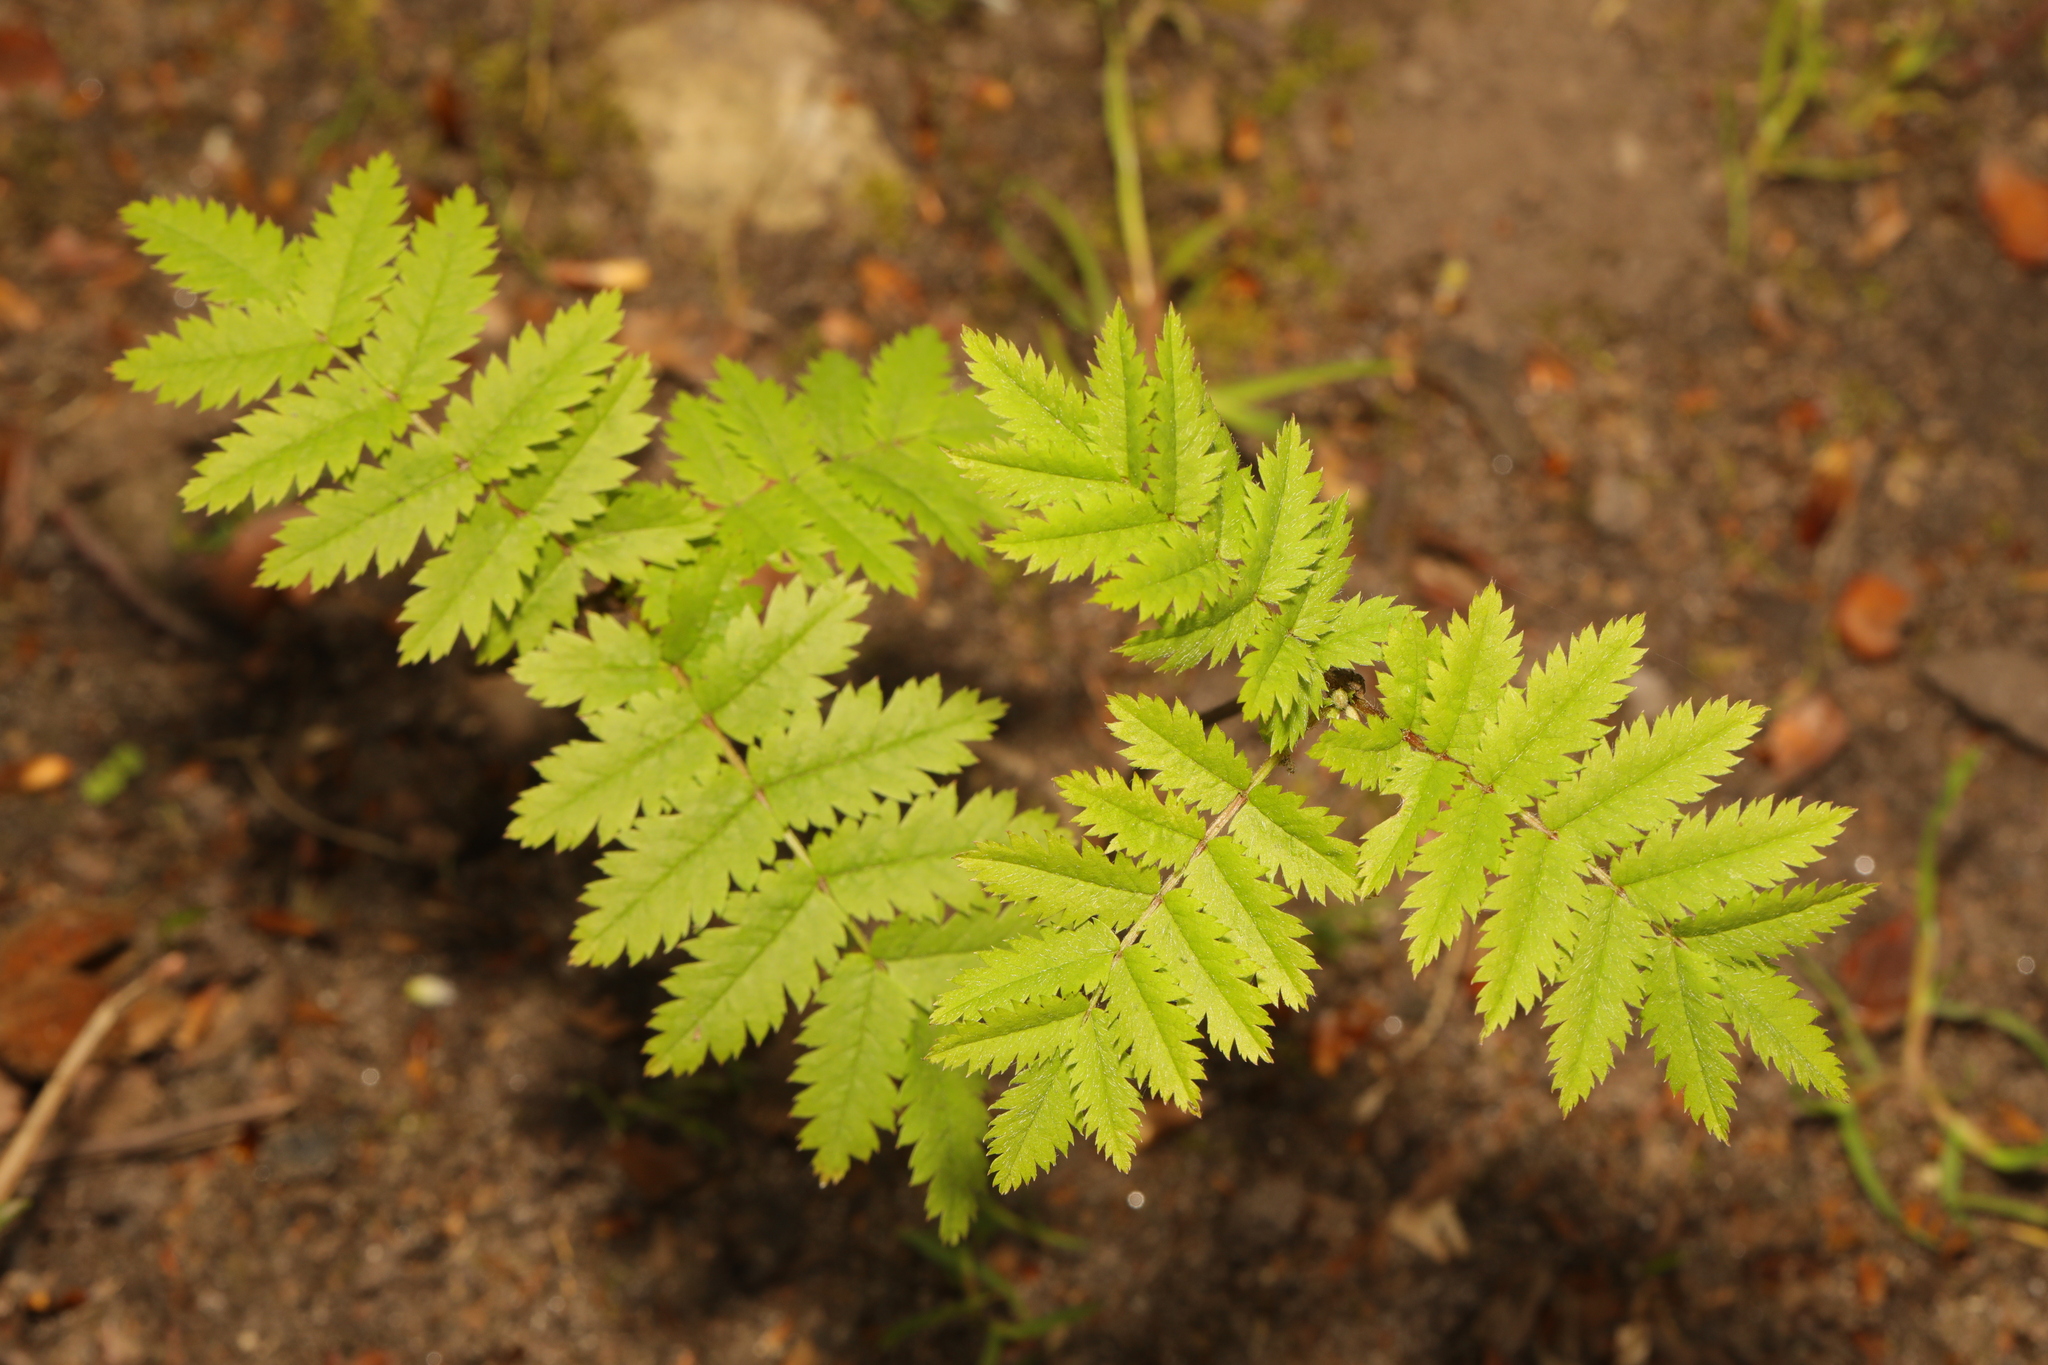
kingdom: Plantae
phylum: Tracheophyta
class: Magnoliopsida
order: Rosales
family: Rosaceae
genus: Sorbus
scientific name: Sorbus aucuparia
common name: Rowan
